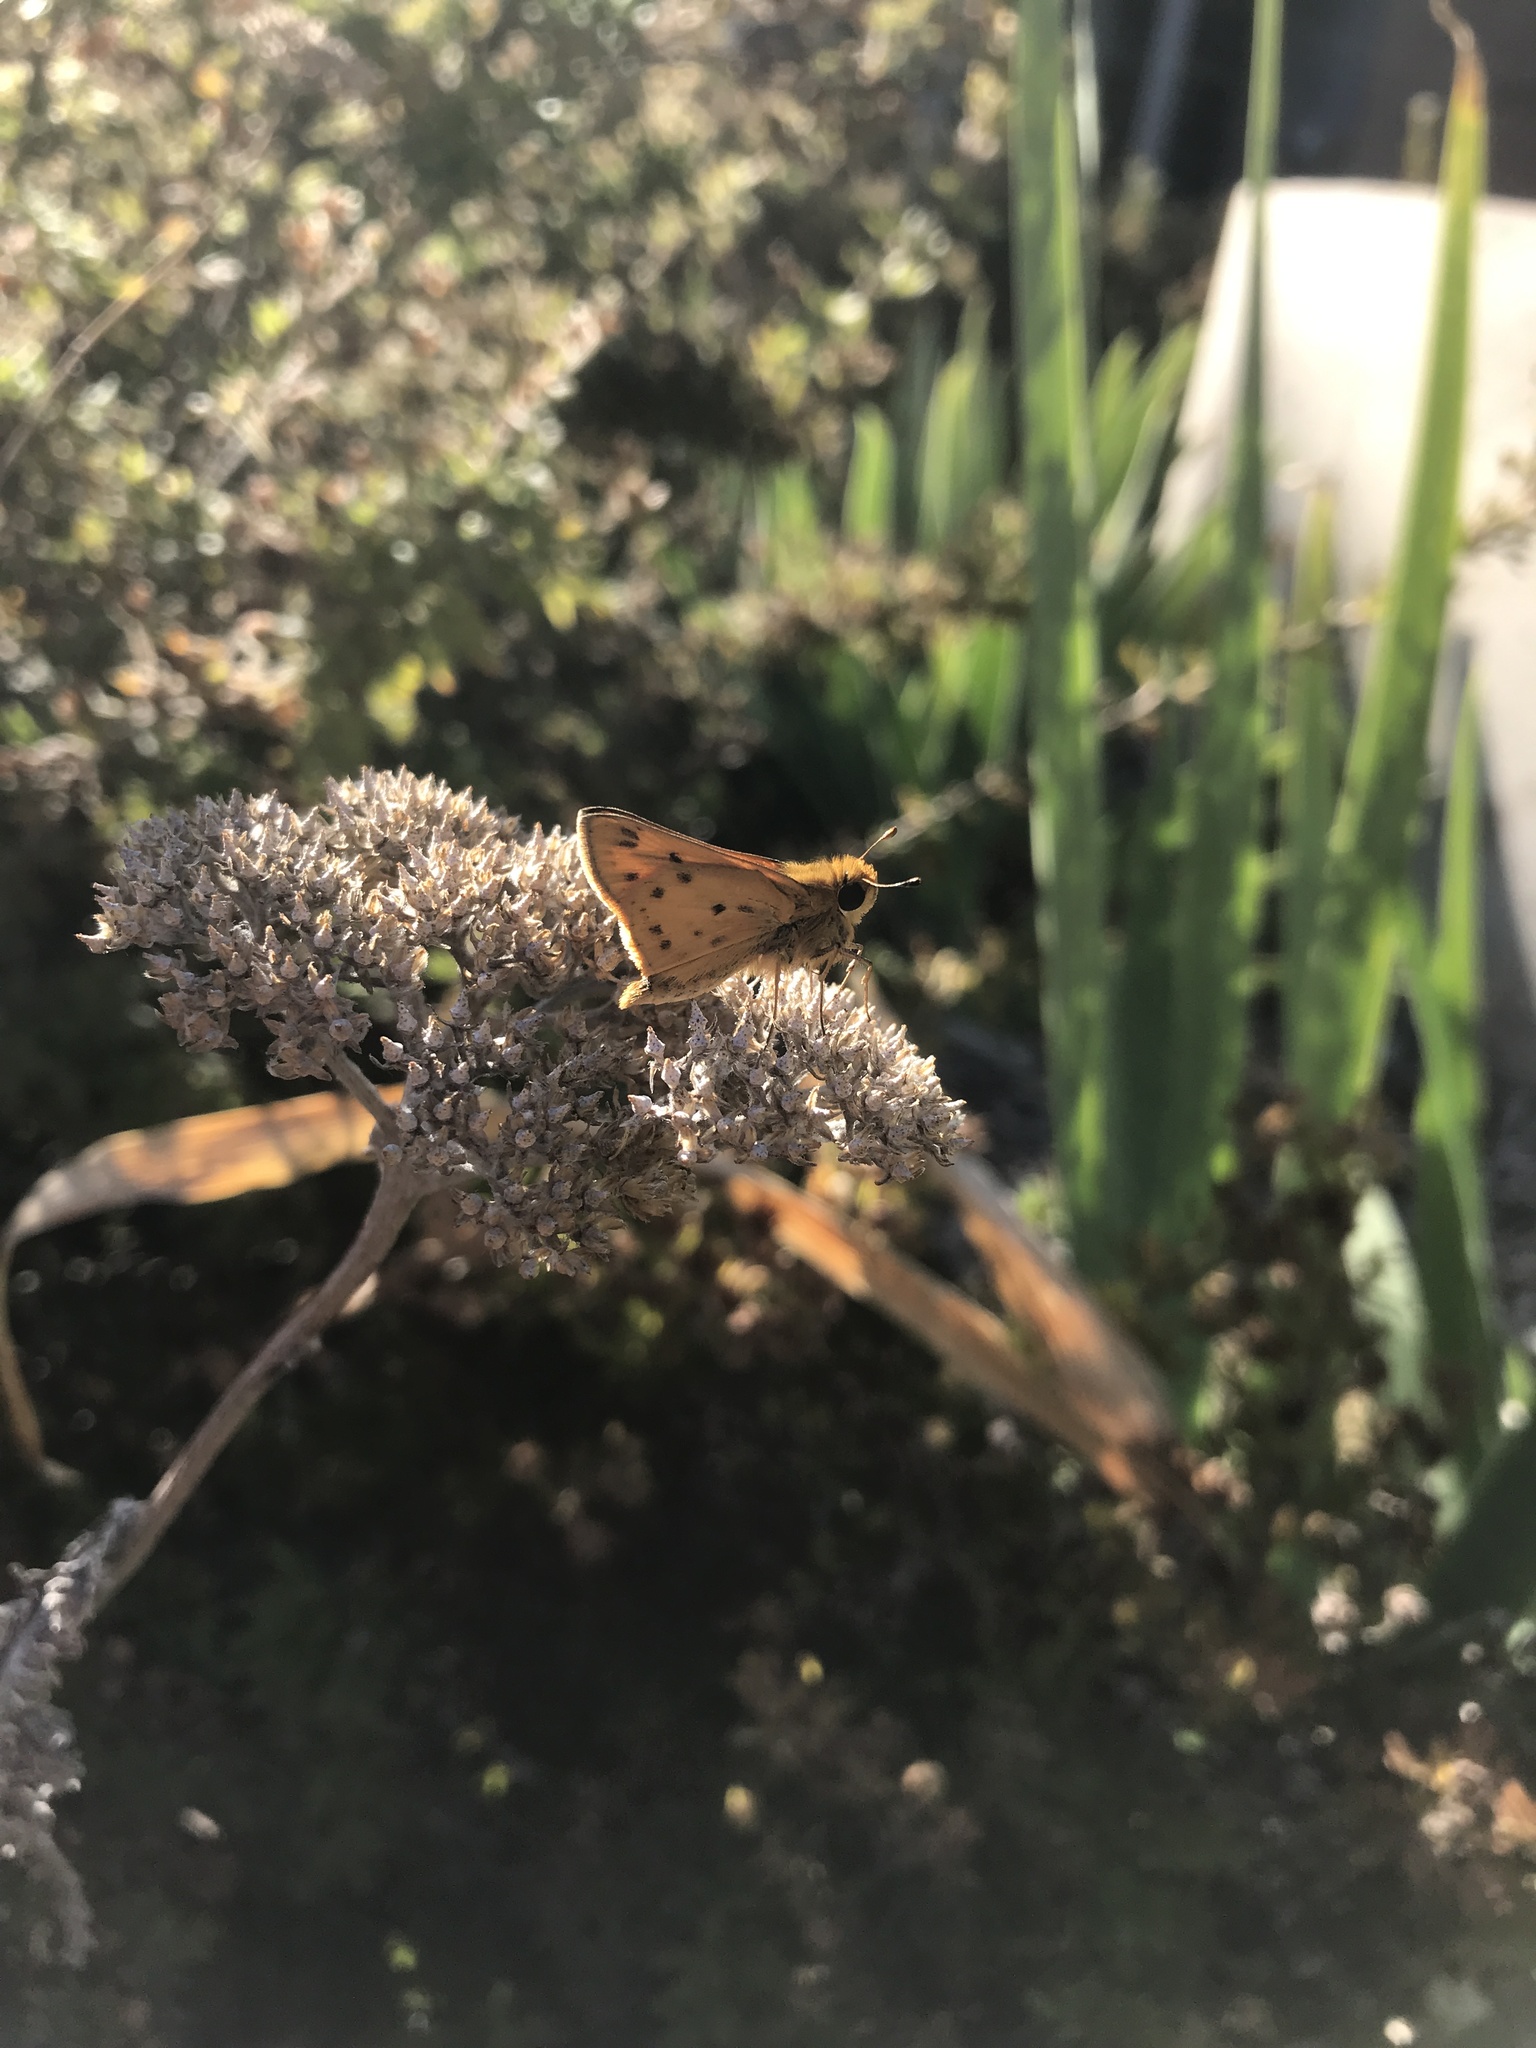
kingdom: Animalia
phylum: Arthropoda
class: Insecta
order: Lepidoptera
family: Hesperiidae
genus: Hylephila
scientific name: Hylephila phyleus
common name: Fiery skipper
